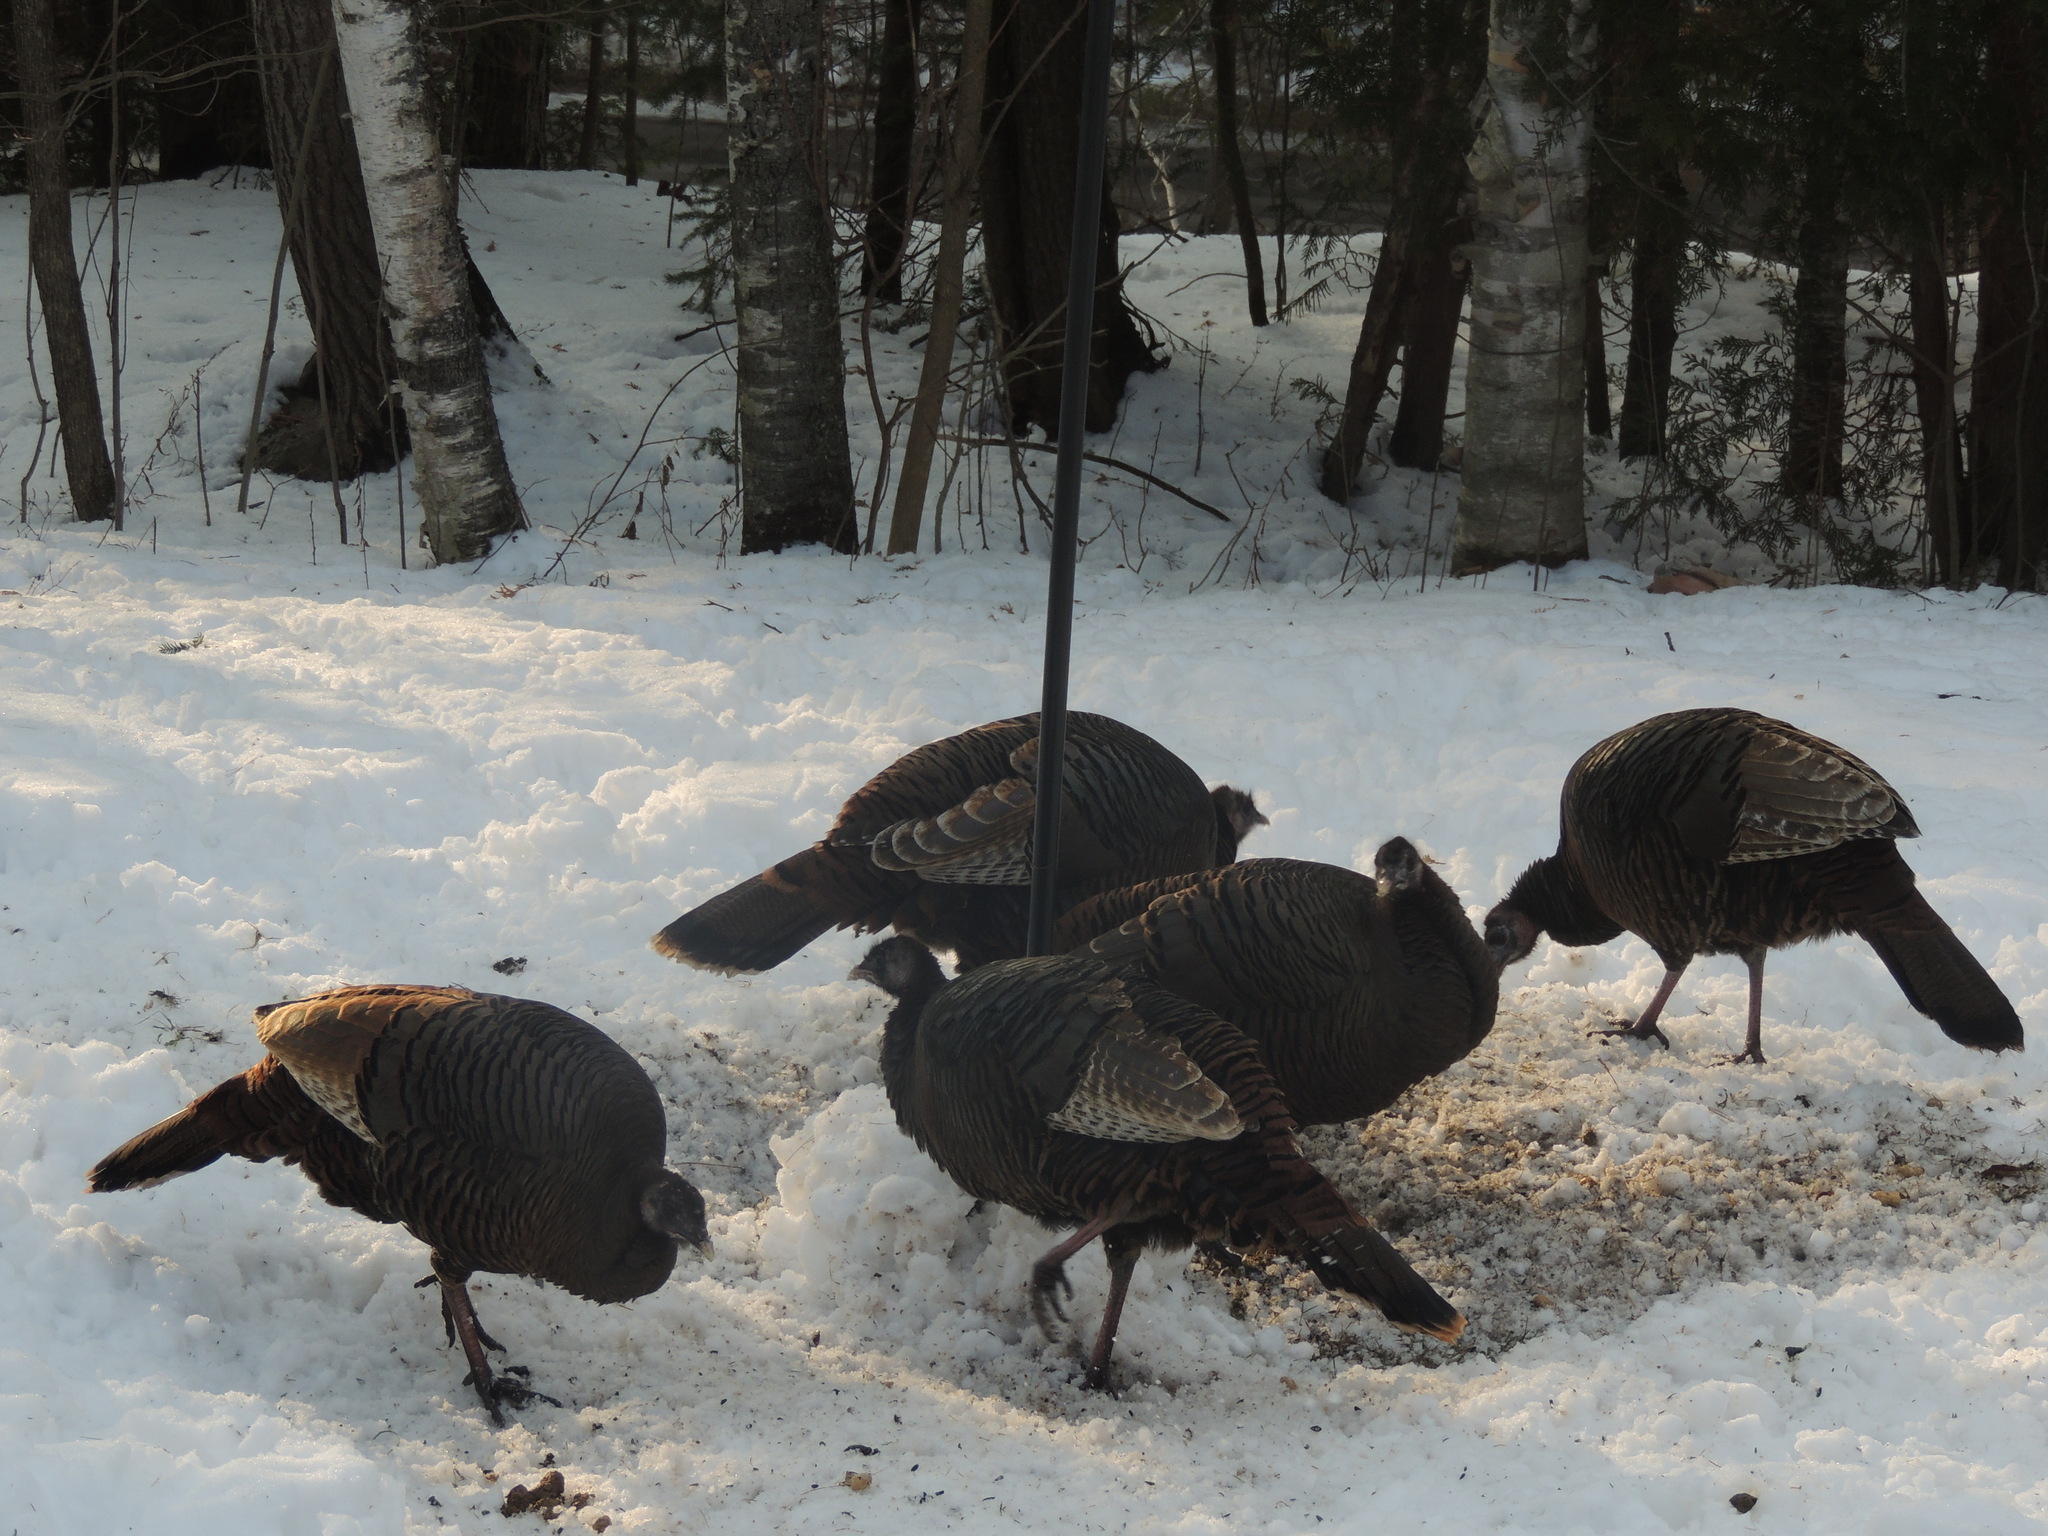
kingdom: Animalia
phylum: Chordata
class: Aves
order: Galliformes
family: Phasianidae
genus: Meleagris
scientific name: Meleagris gallopavo
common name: Wild turkey
